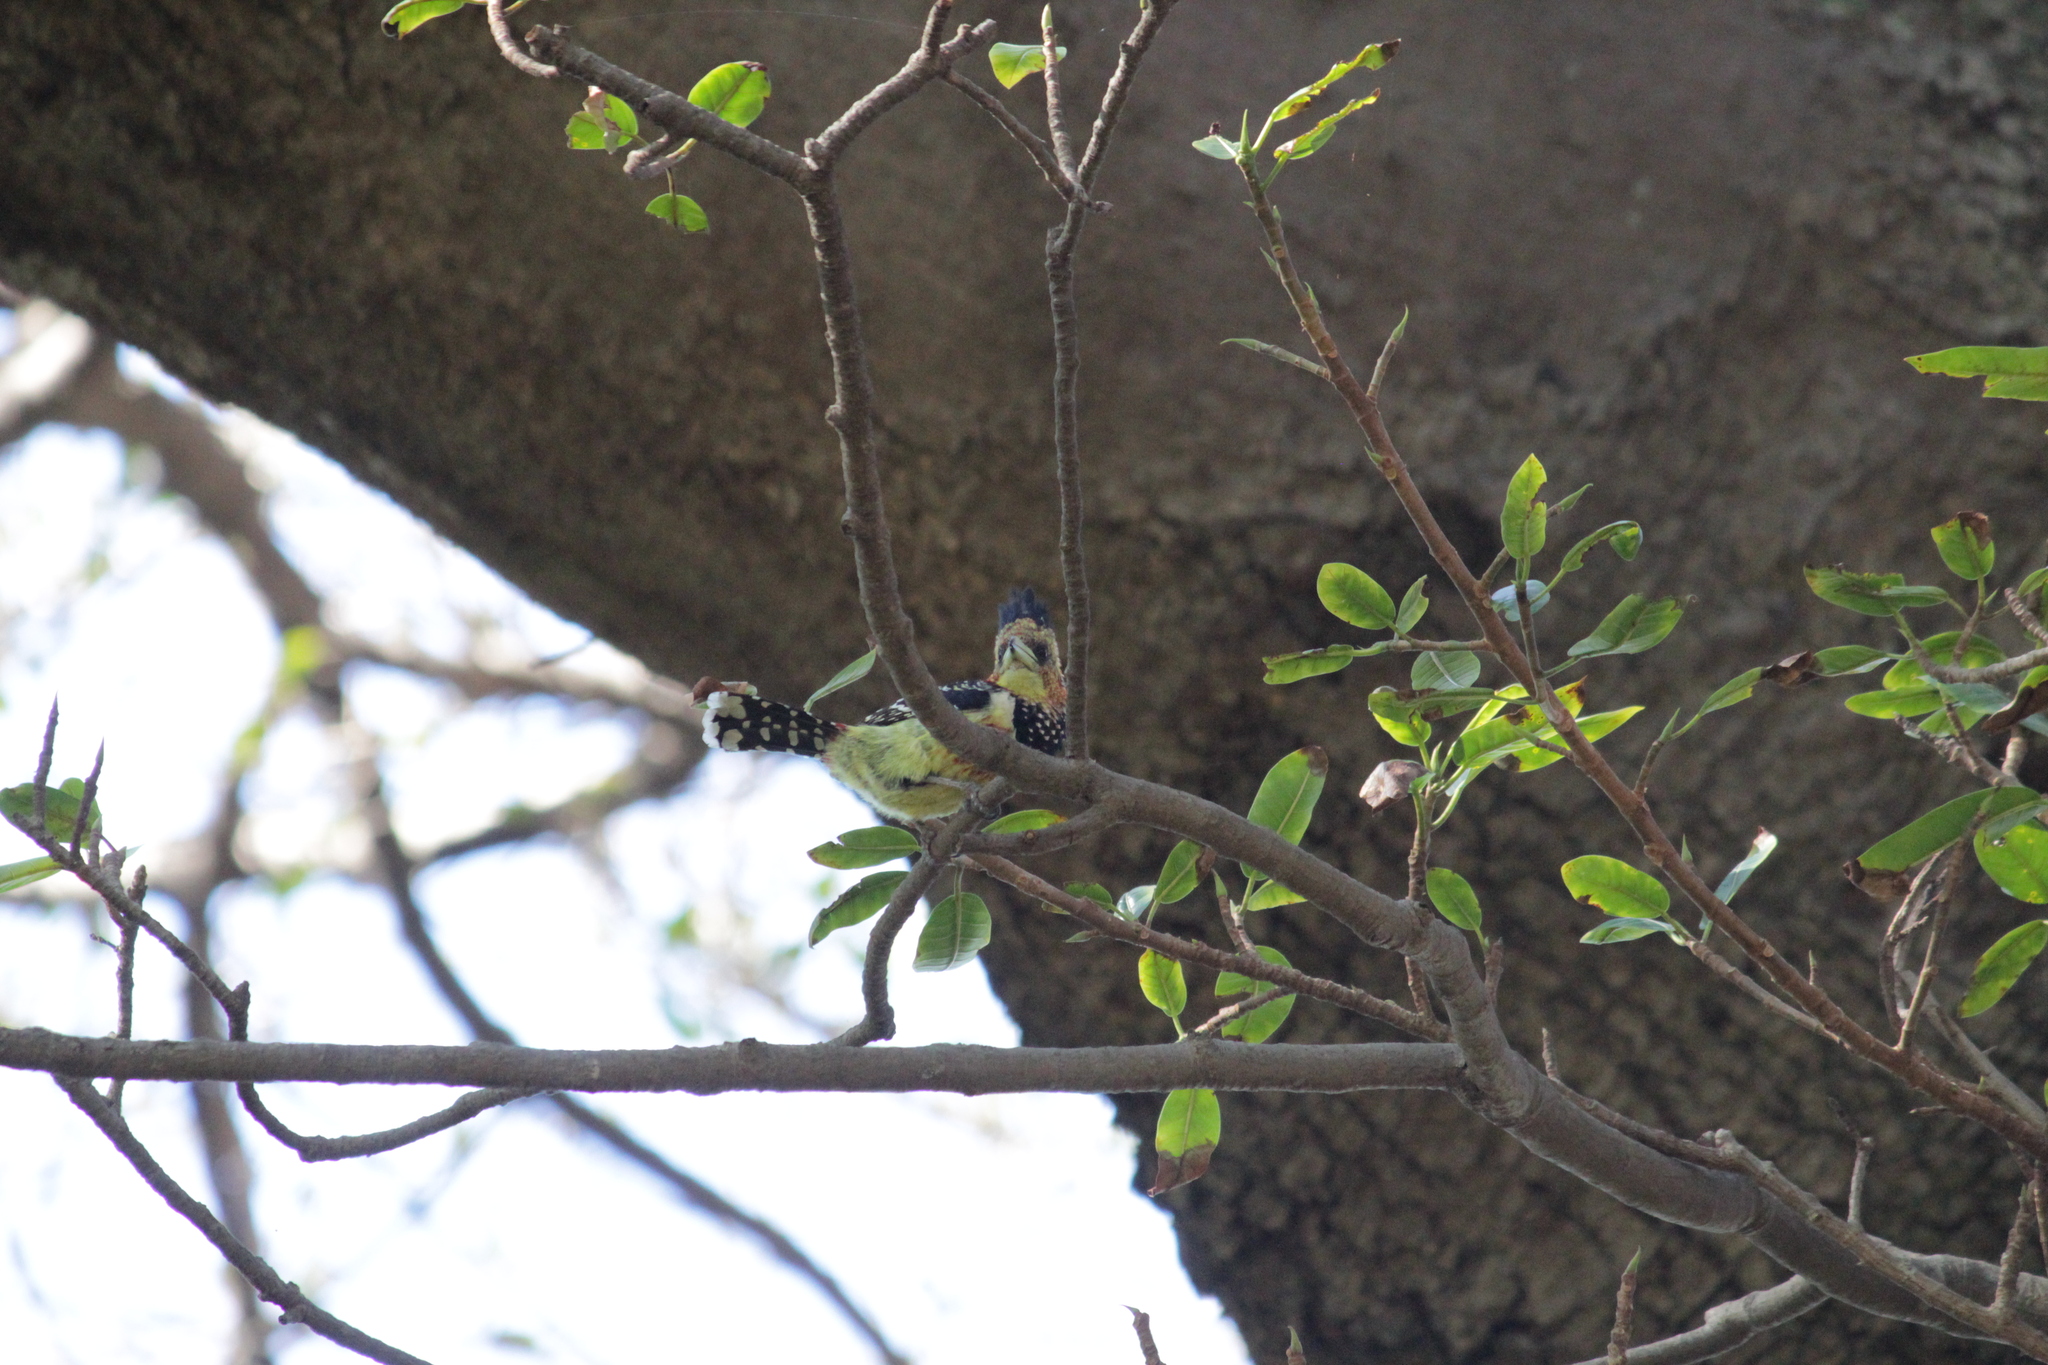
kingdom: Animalia
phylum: Chordata
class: Aves
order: Piciformes
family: Lybiidae
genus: Trachyphonus
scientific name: Trachyphonus vaillantii
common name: Crested barbet
